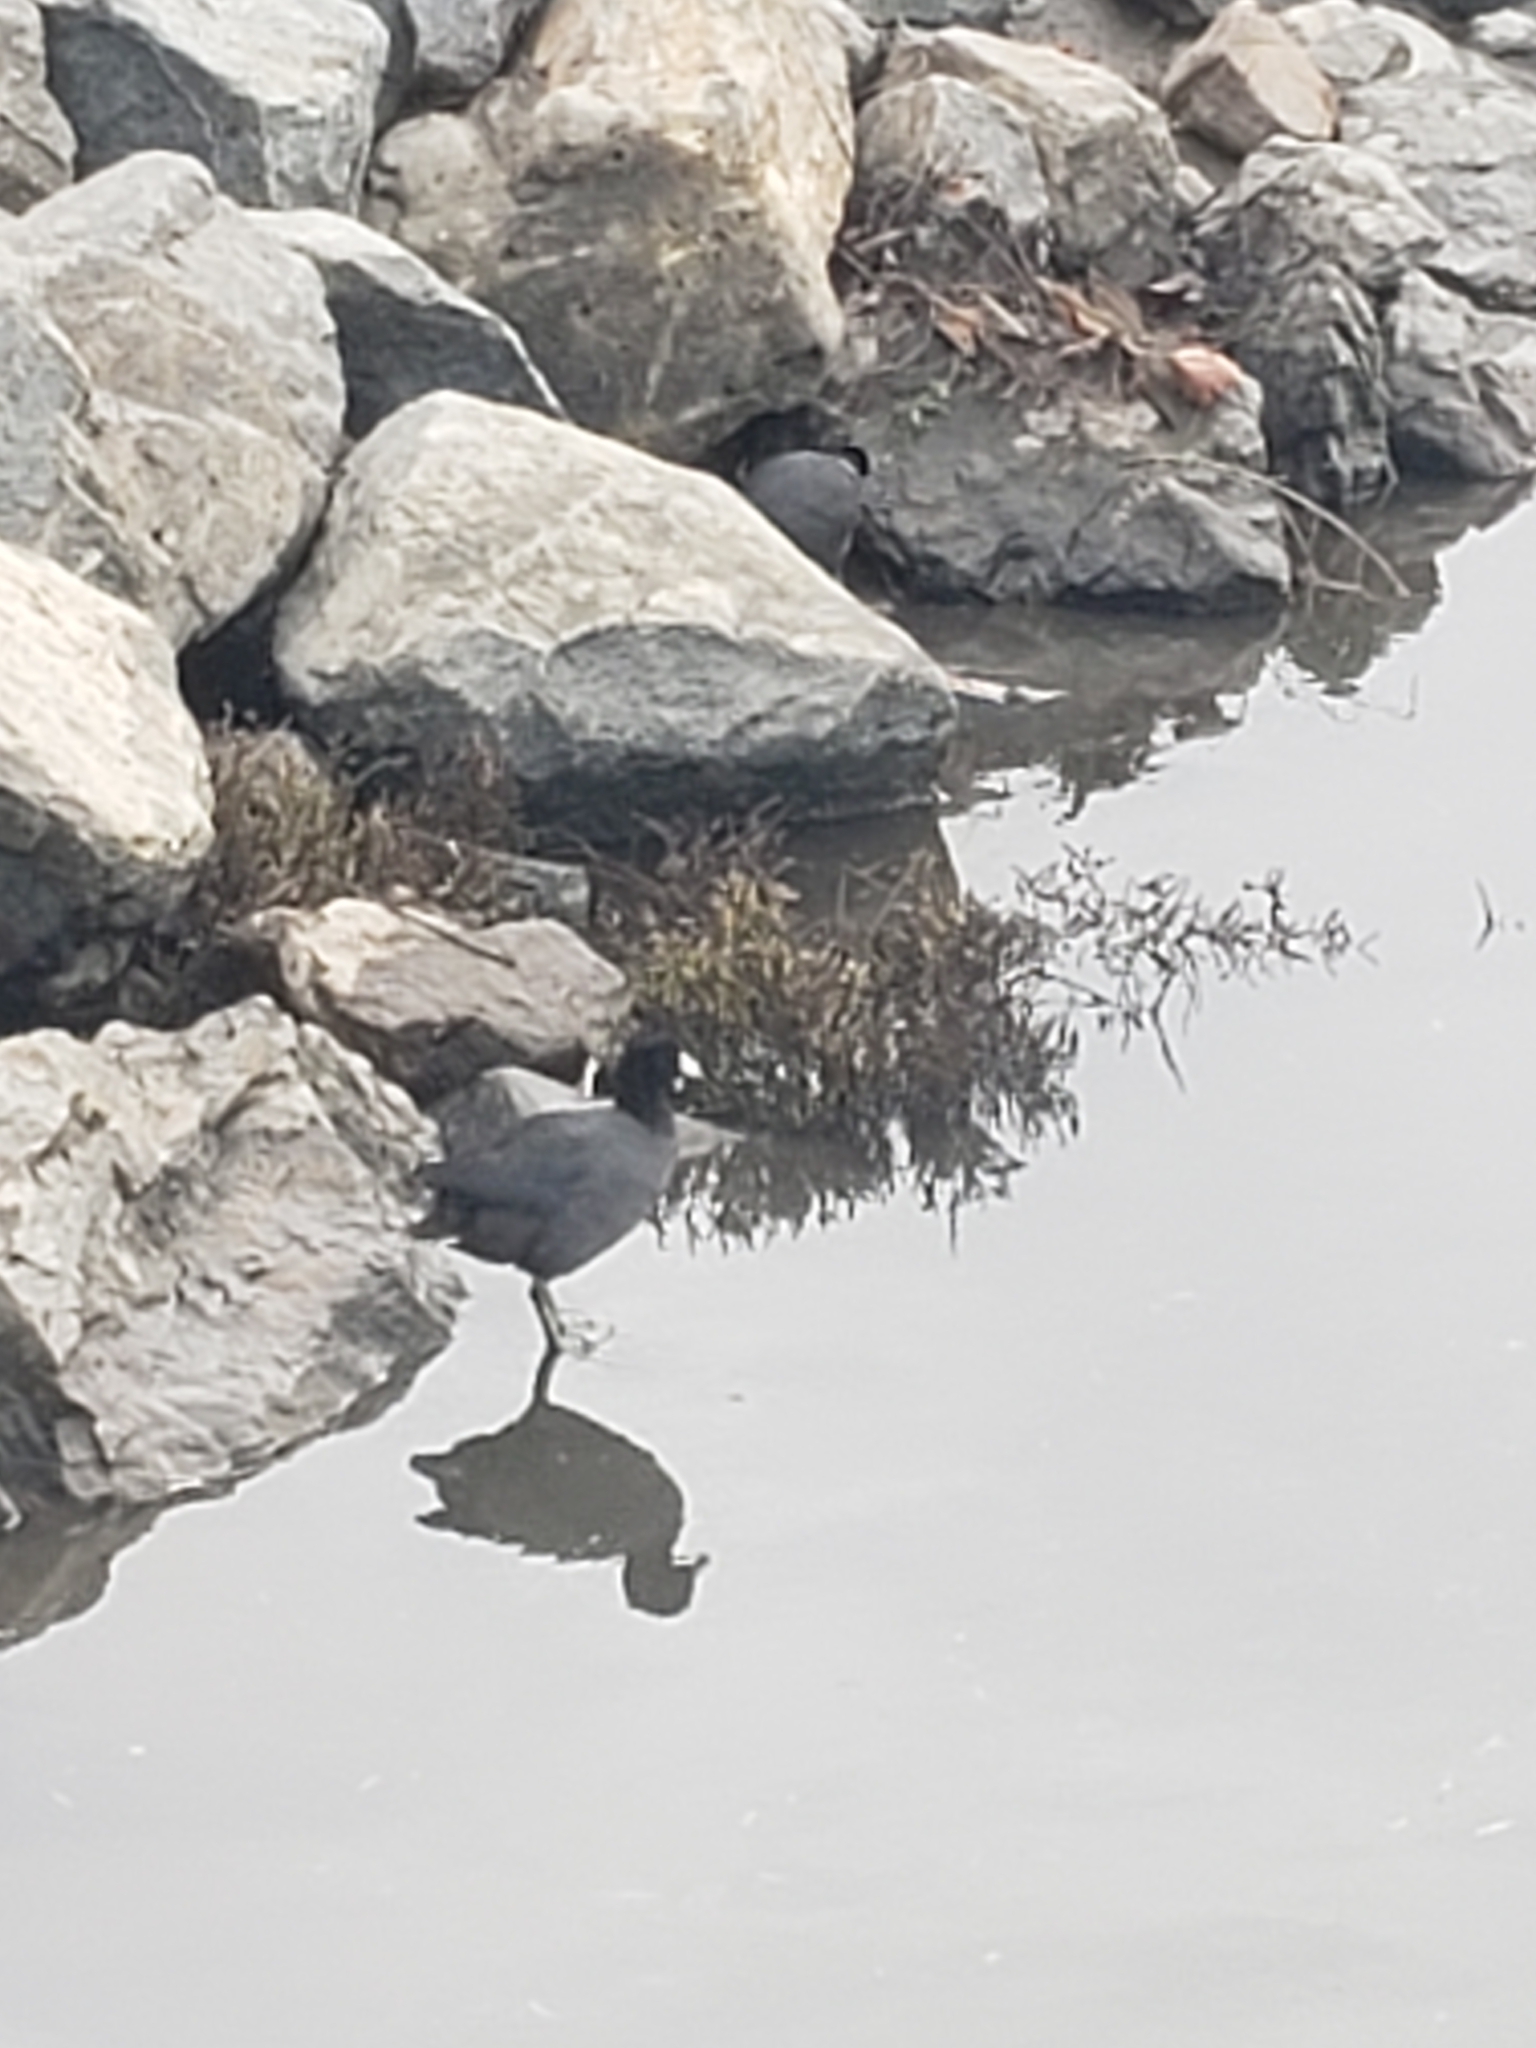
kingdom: Animalia
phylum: Chordata
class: Aves
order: Gruiformes
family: Rallidae
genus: Fulica
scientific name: Fulica americana
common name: American coot
